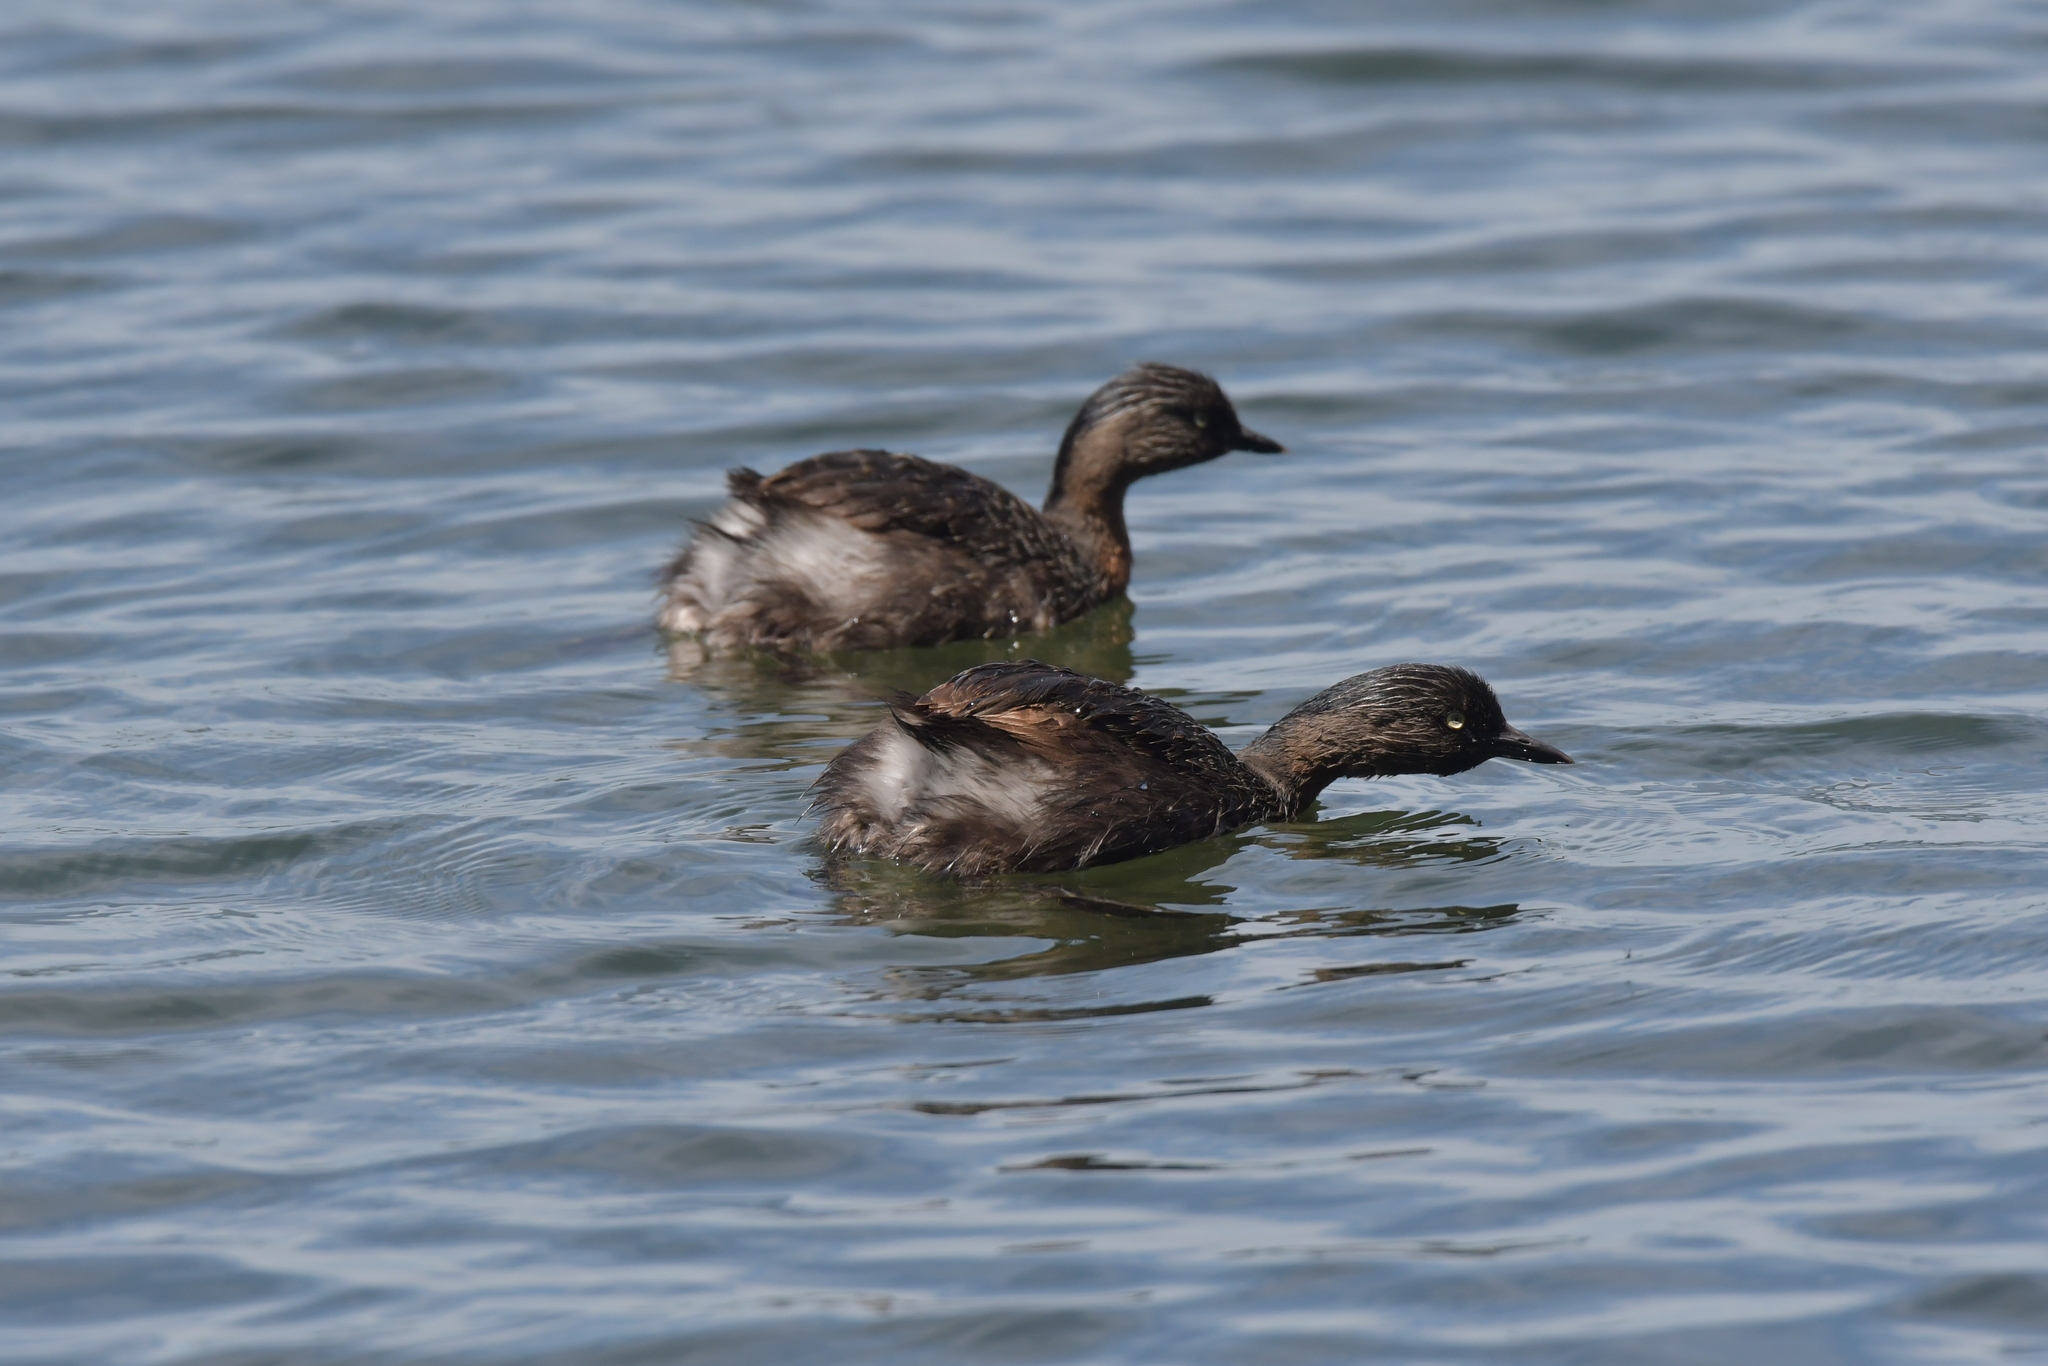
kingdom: Animalia
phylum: Chordata
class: Aves
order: Podicipediformes
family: Podicipedidae
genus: Poliocephalus
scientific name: Poliocephalus rufopectus
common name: New zealand grebe
